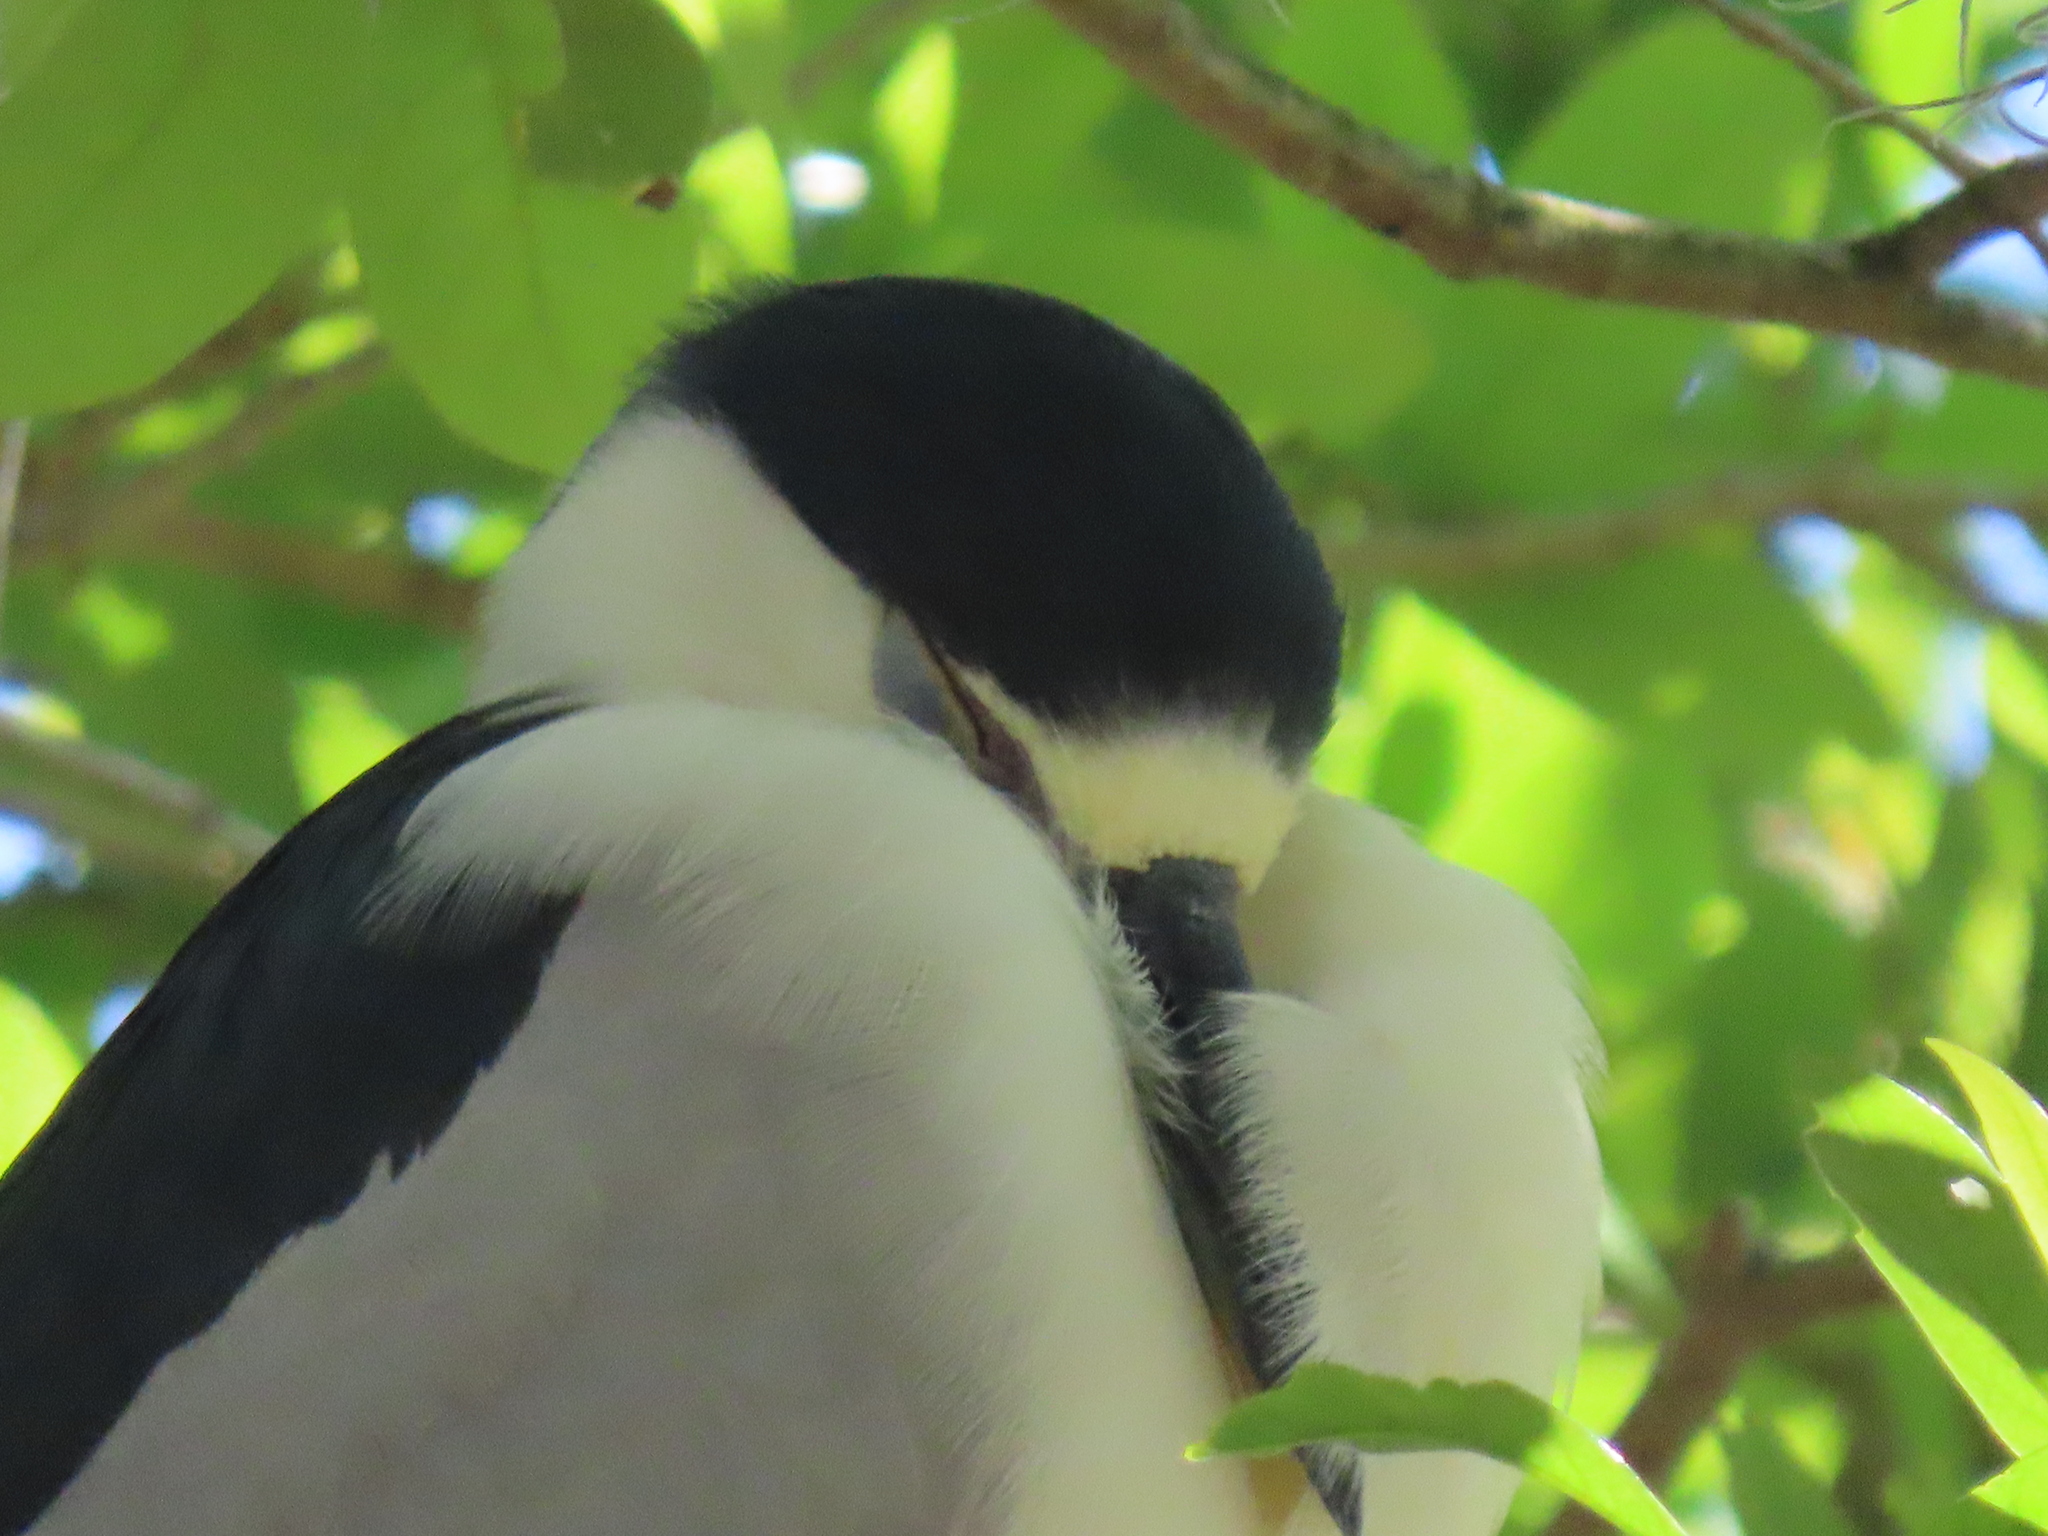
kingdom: Animalia
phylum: Chordata
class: Aves
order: Pelecaniformes
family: Ardeidae
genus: Nycticorax
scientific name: Nycticorax nycticorax
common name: Black-crowned night heron
